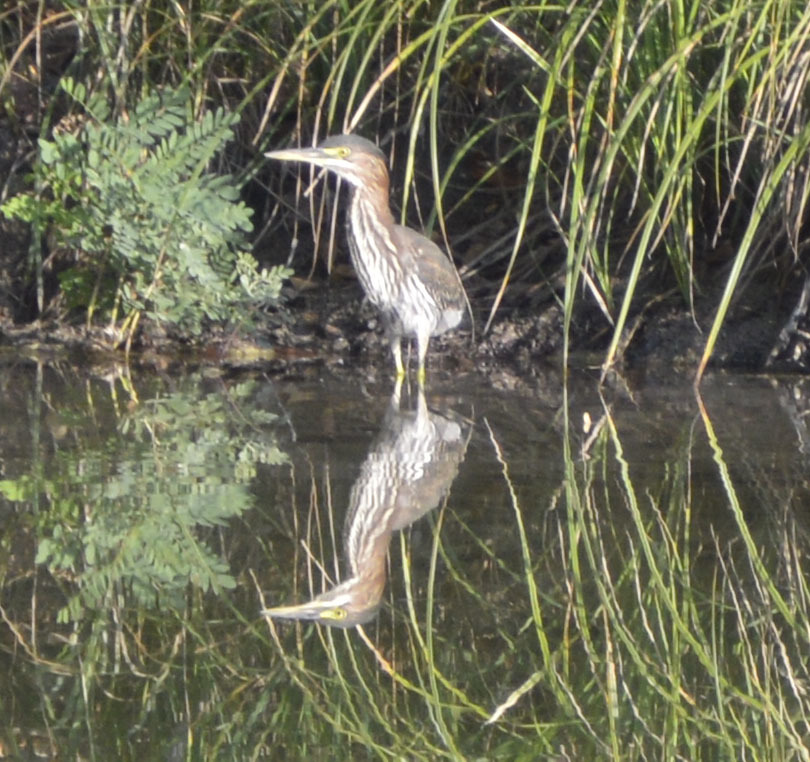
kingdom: Animalia
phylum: Chordata
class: Aves
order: Pelecaniformes
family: Ardeidae
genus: Butorides
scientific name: Butorides virescens
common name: Green heron
